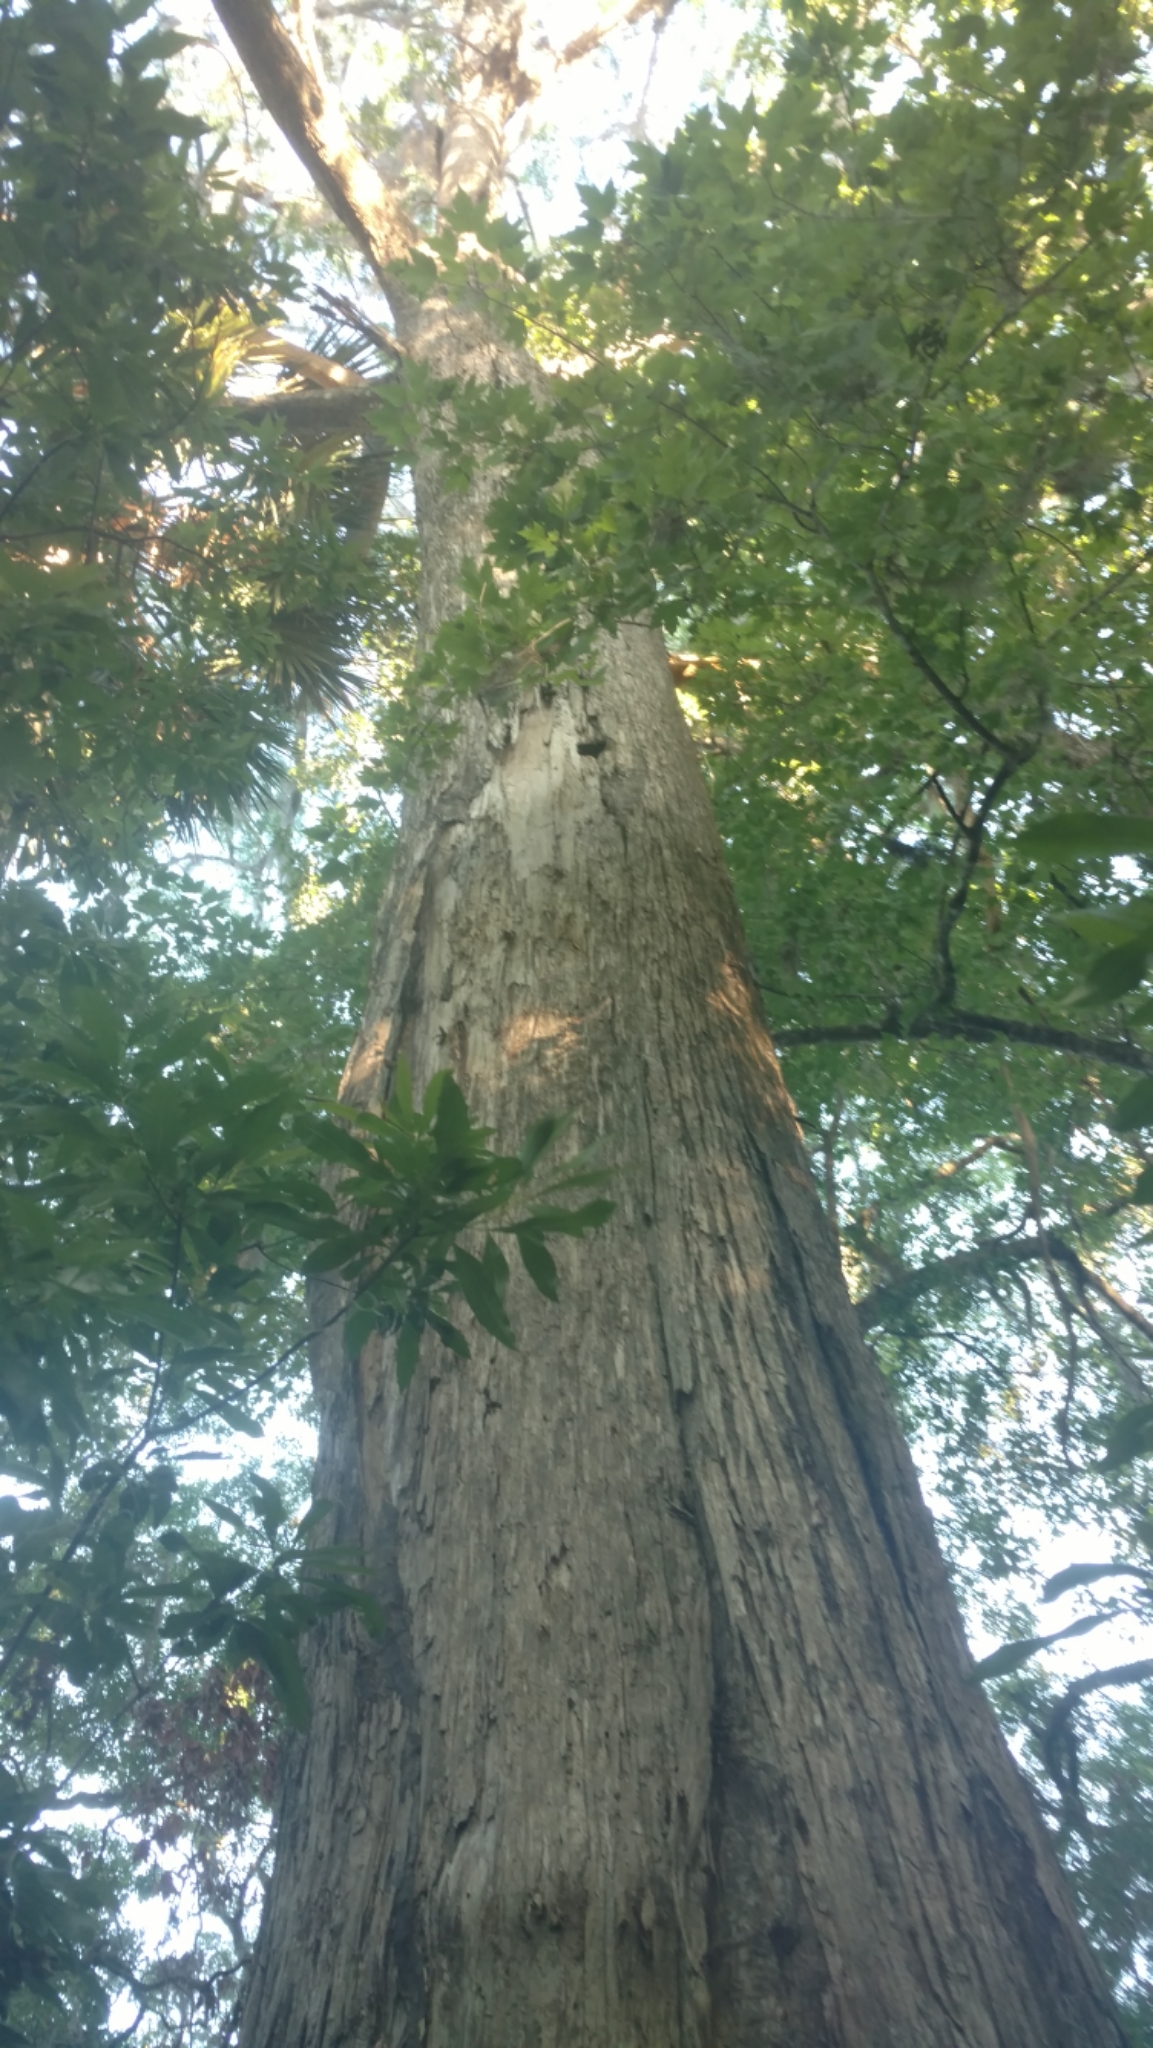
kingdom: Plantae
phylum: Tracheophyta
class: Pinopsida
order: Pinales
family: Cupressaceae
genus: Taxodium
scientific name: Taxodium distichum
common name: Bald cypress
